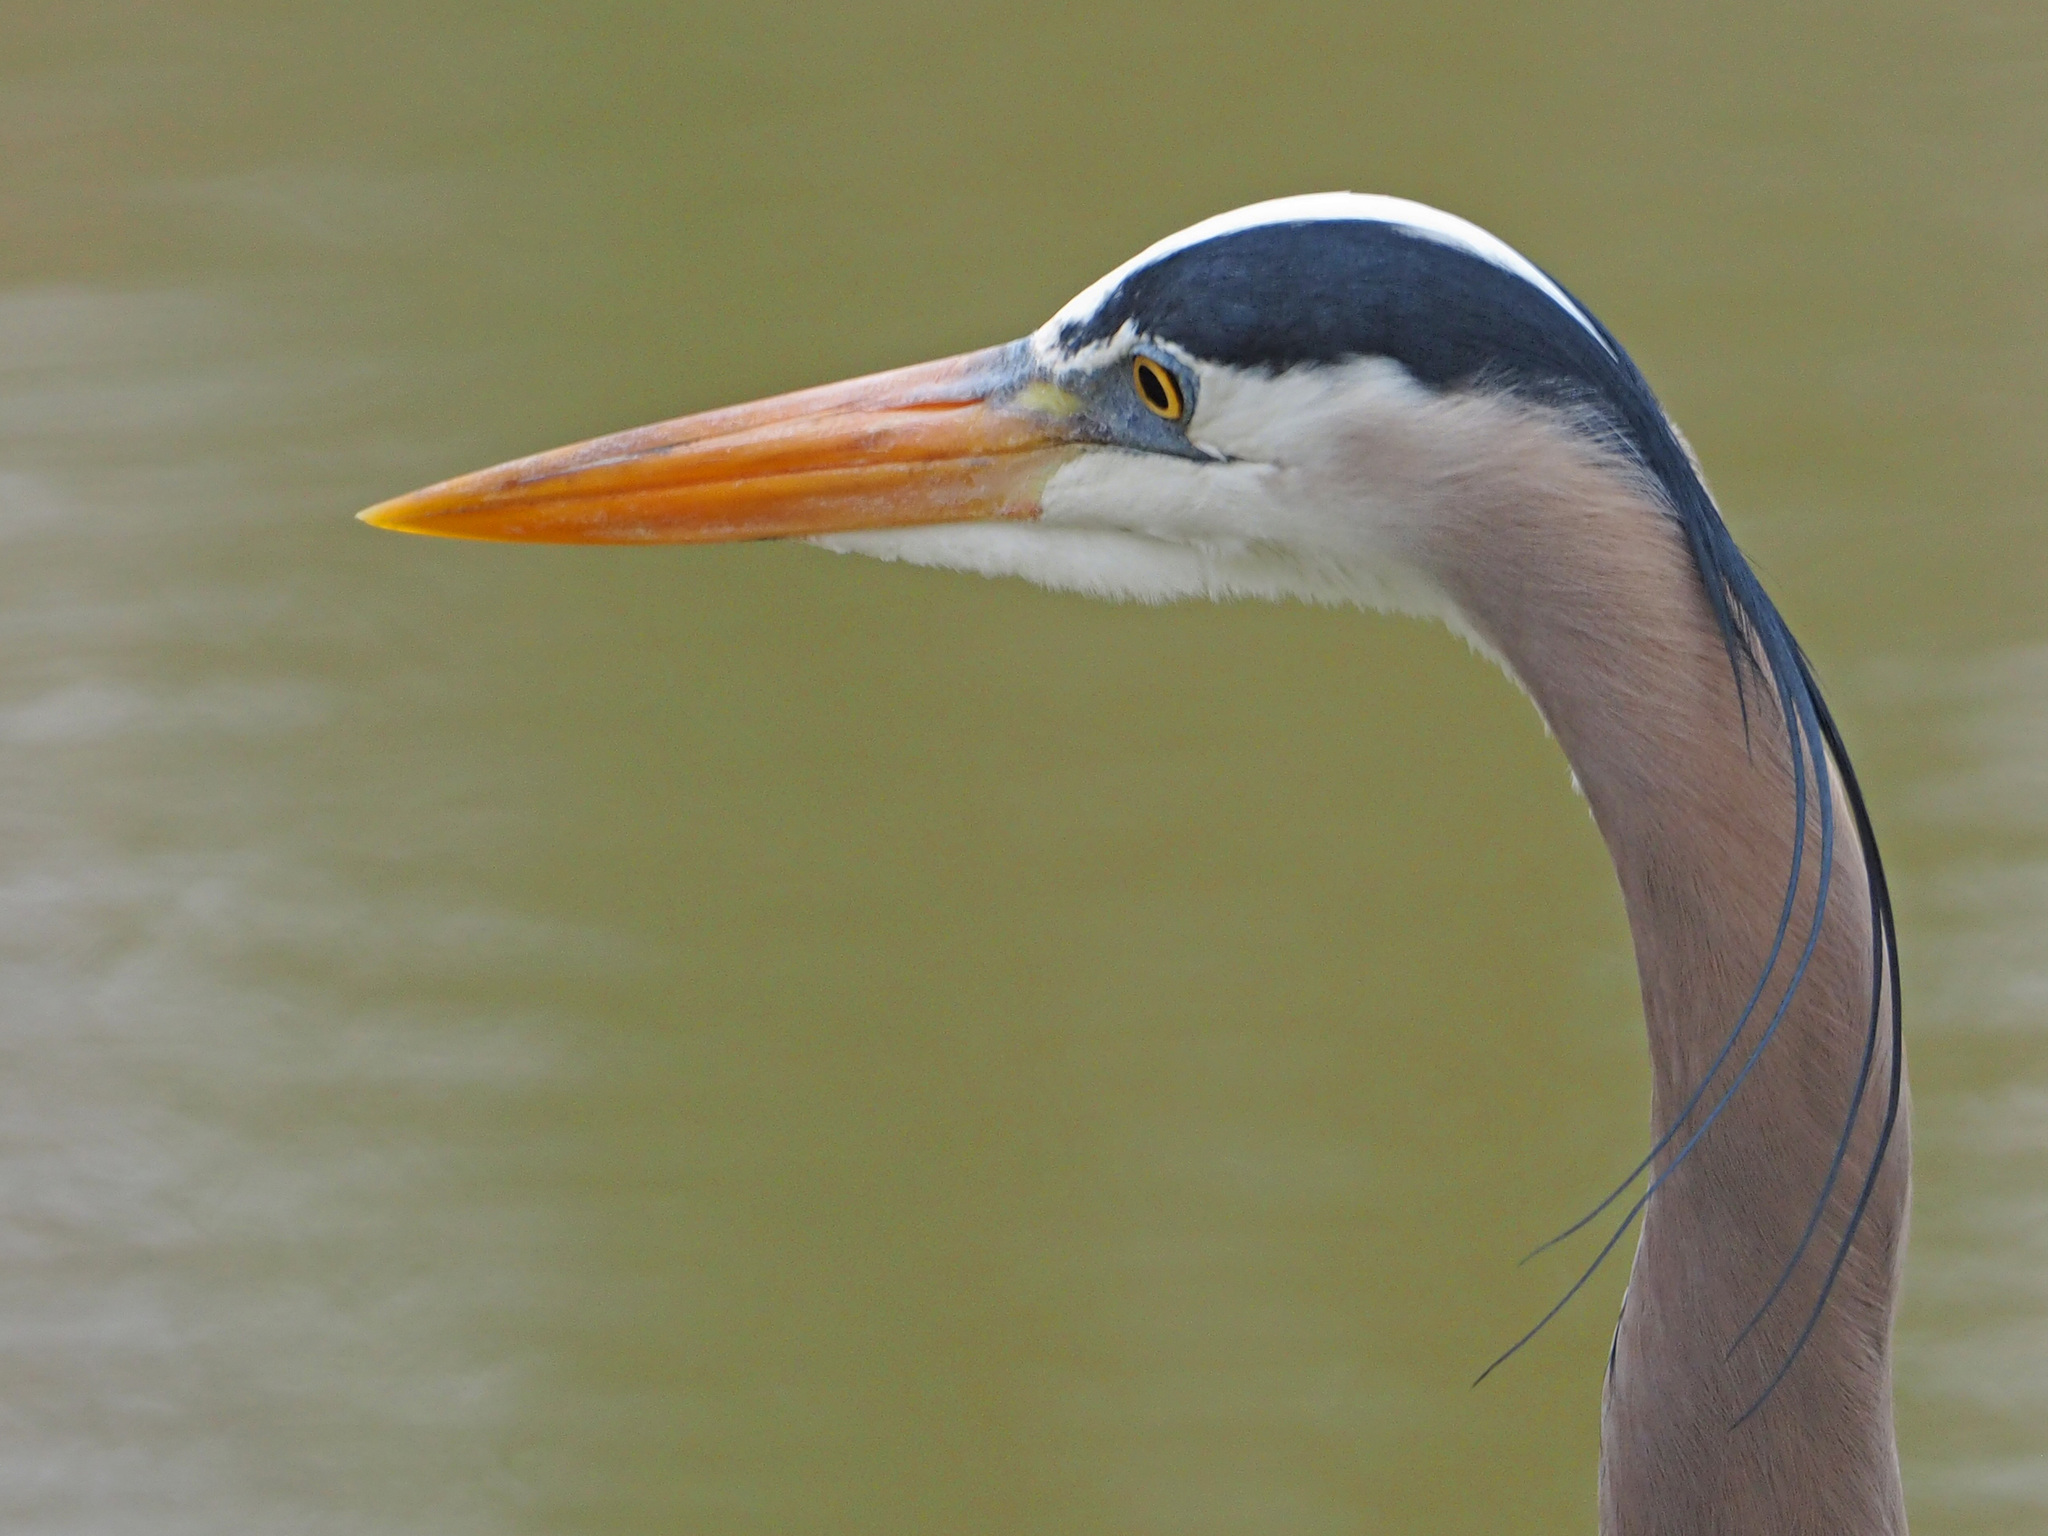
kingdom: Animalia
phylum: Chordata
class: Aves
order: Pelecaniformes
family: Ardeidae
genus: Ardea
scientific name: Ardea herodias
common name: Great blue heron
